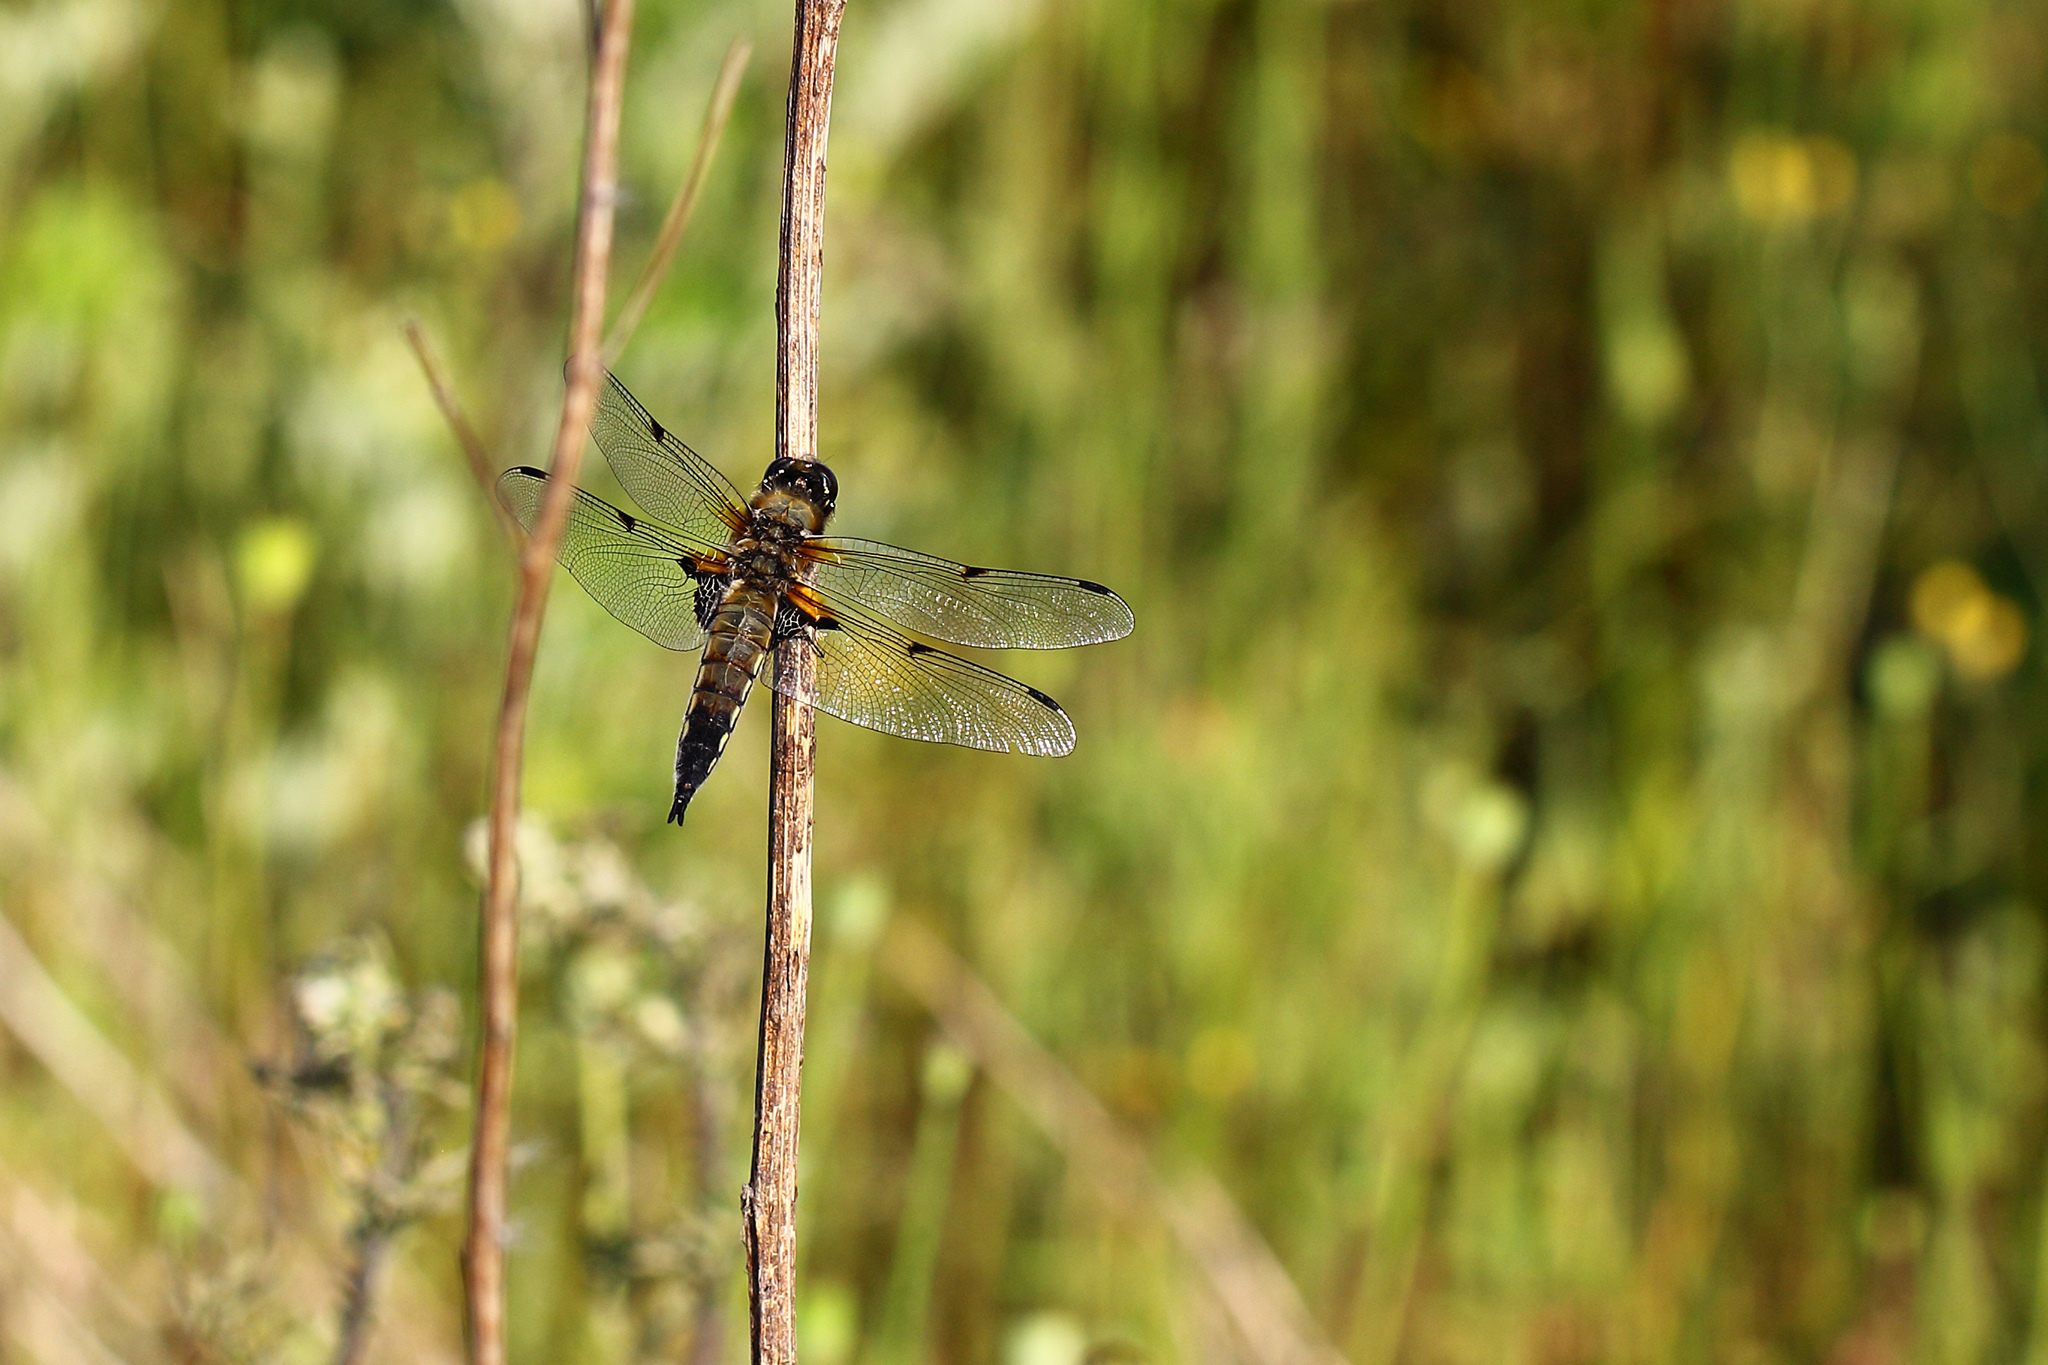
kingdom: Animalia
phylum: Arthropoda
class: Insecta
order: Odonata
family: Libellulidae
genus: Libellula
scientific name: Libellula quadrimaculata
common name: Four-spotted chaser
